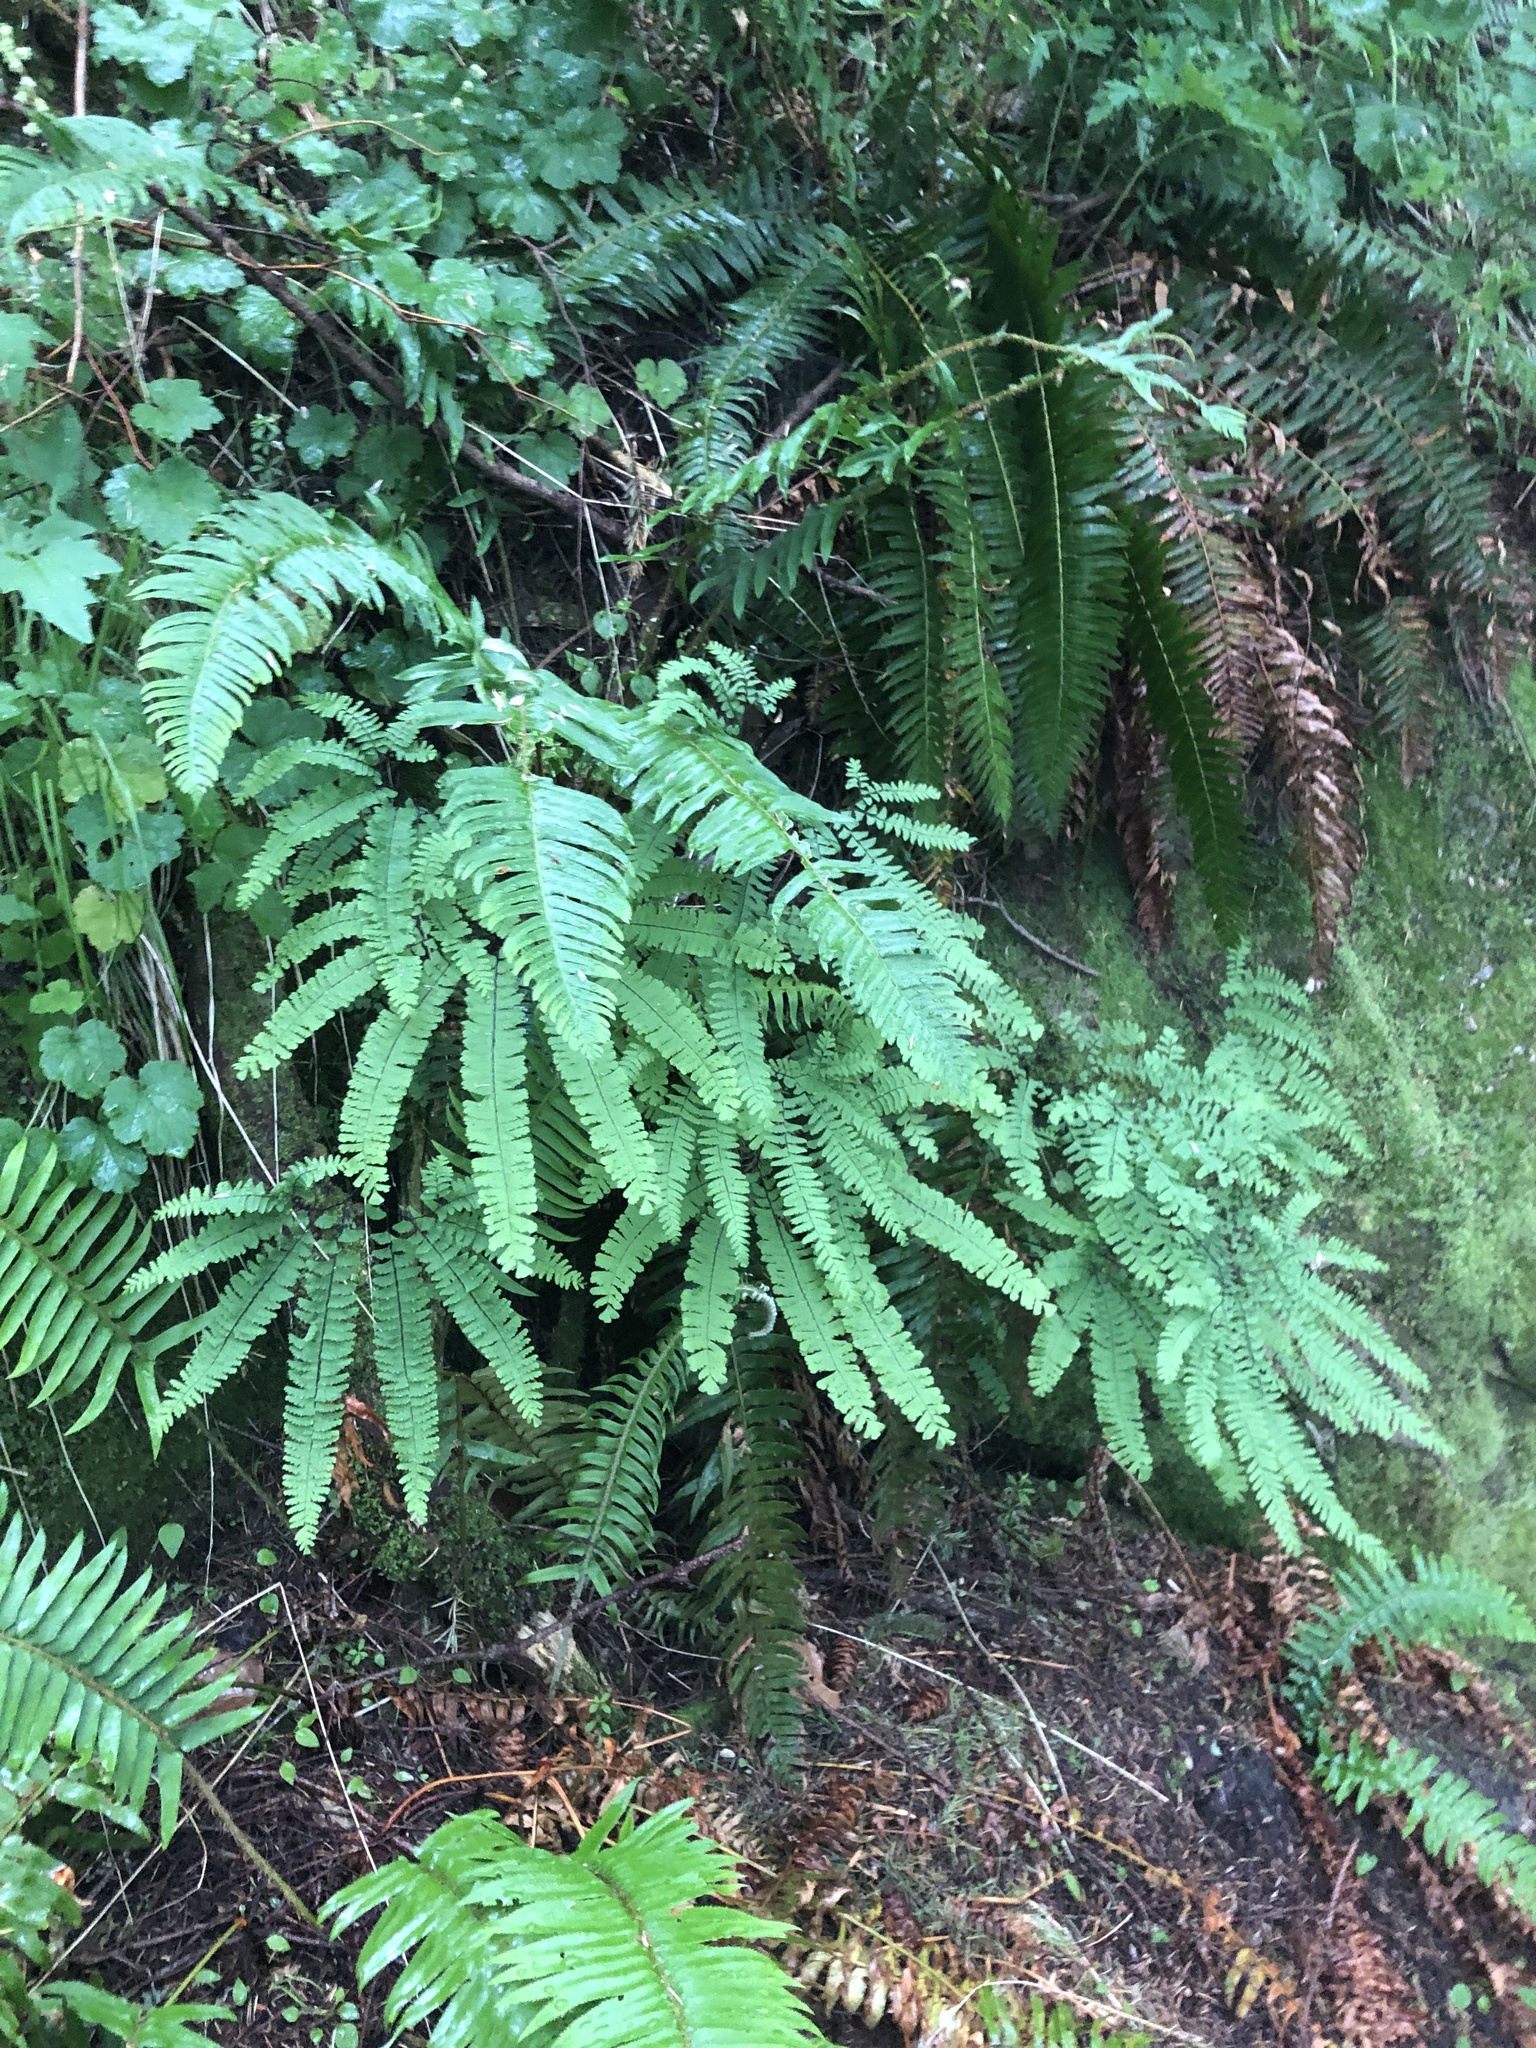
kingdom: Plantae
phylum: Tracheophyta
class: Polypodiopsida
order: Polypodiales
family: Pteridaceae
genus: Adiantum
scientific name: Adiantum aleuticum
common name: Aleutian maidenhair fern
